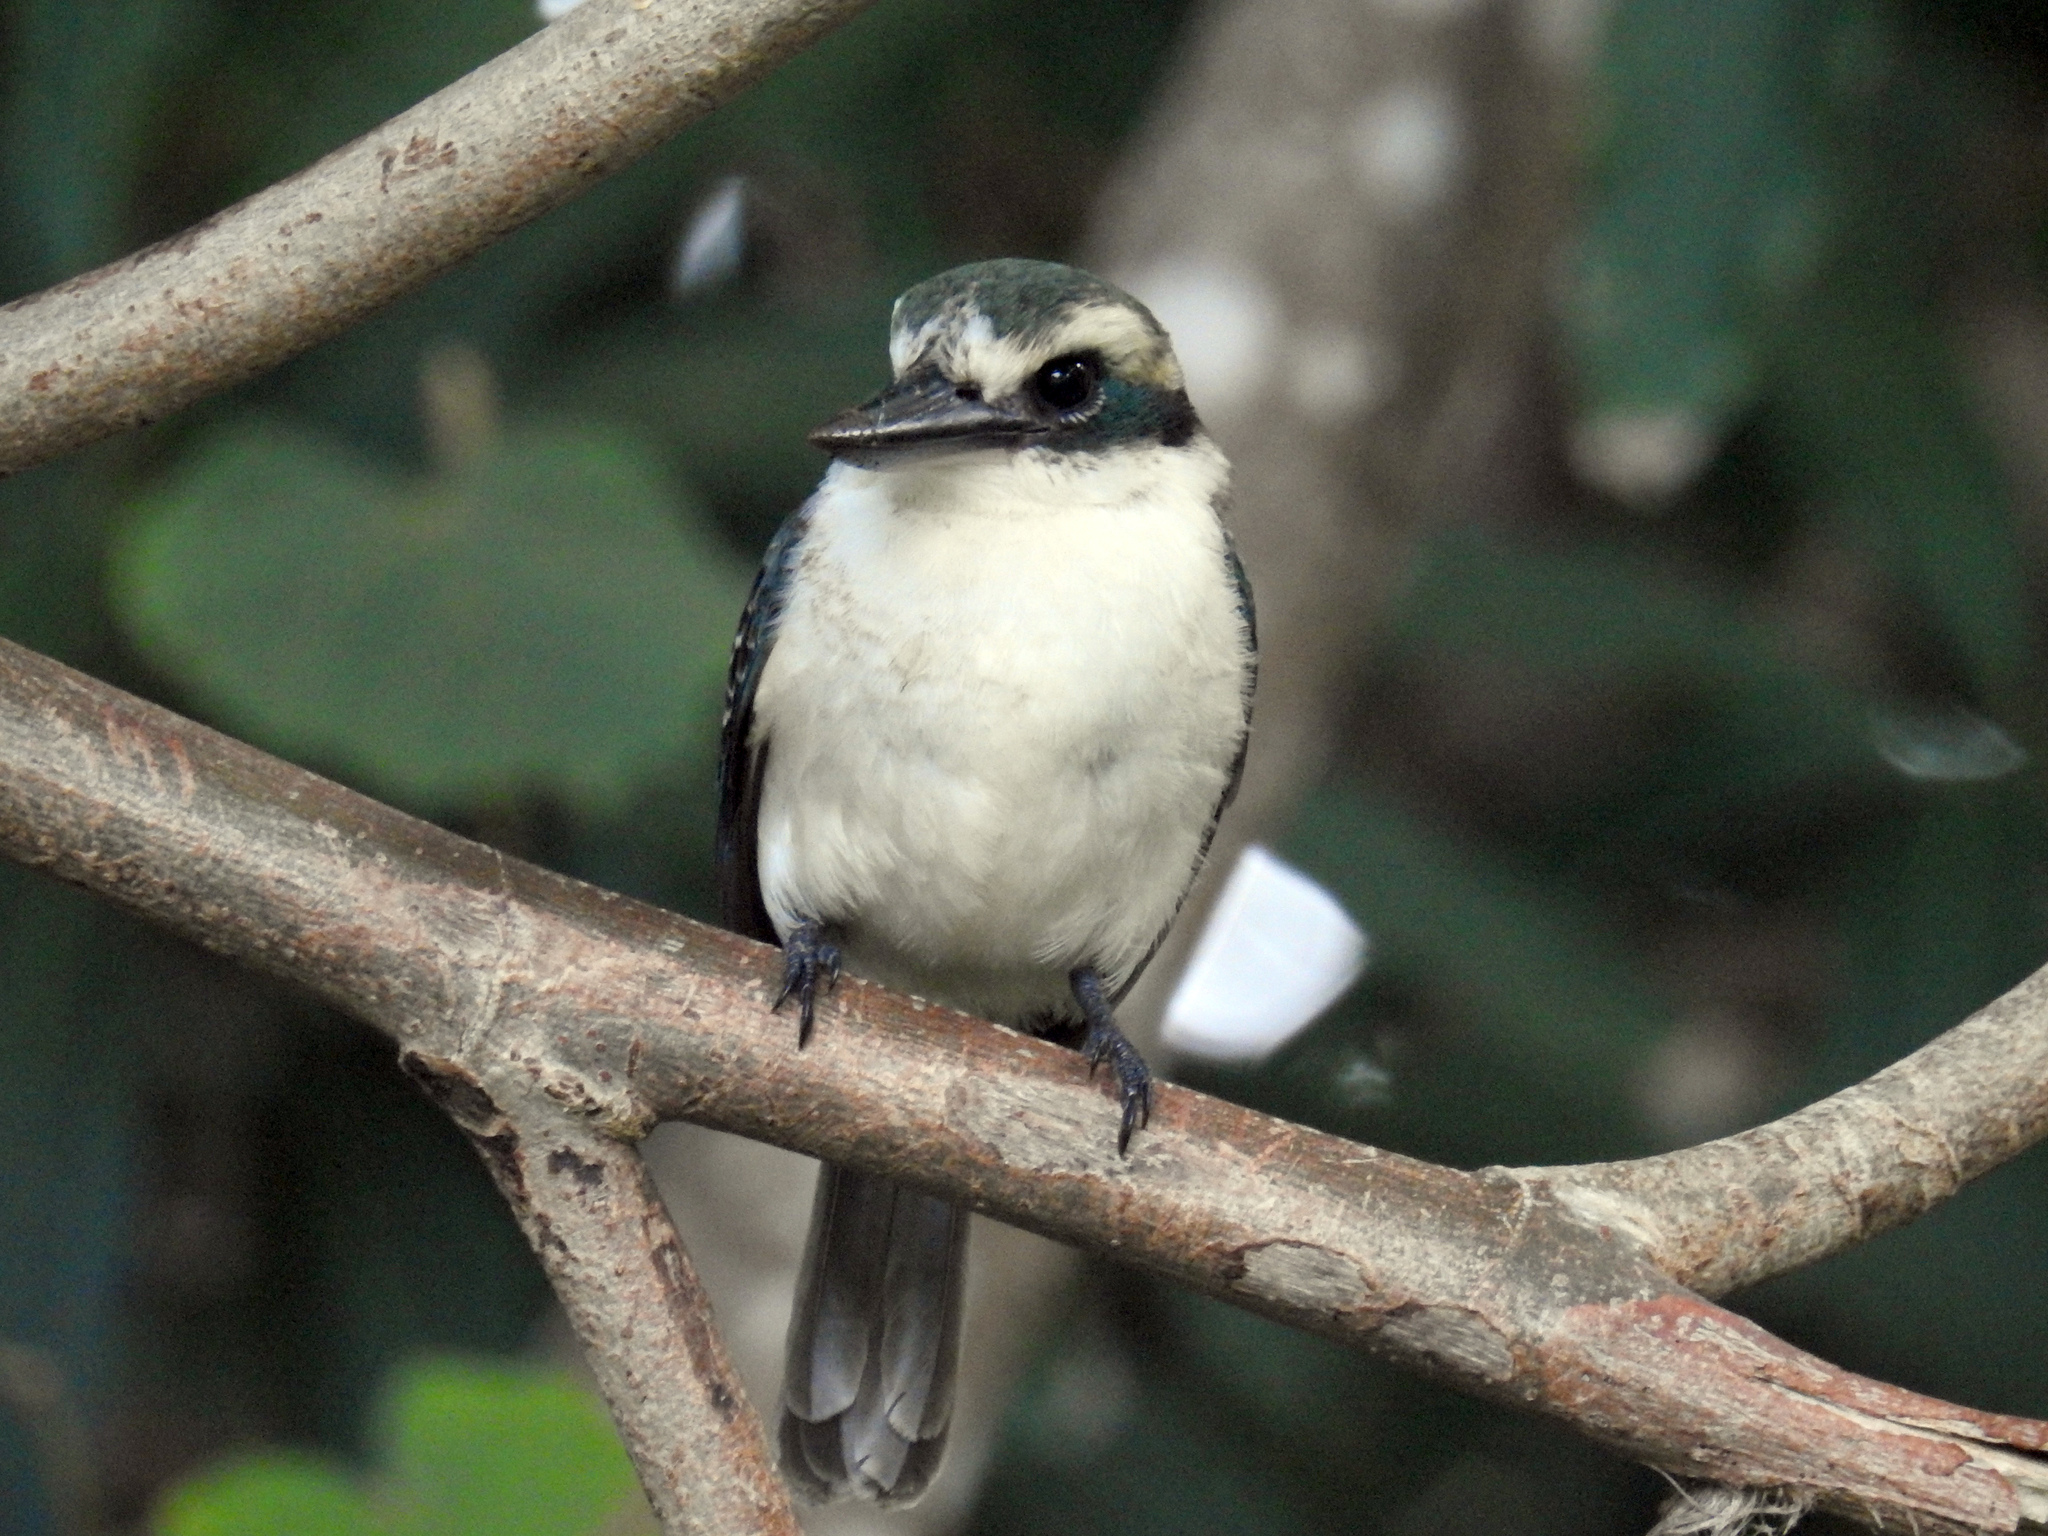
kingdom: Animalia
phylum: Chordata
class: Aves
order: Coraciiformes
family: Alcedinidae
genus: Todiramphus
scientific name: Todiramphus tutus
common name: Chattering kingfisher
